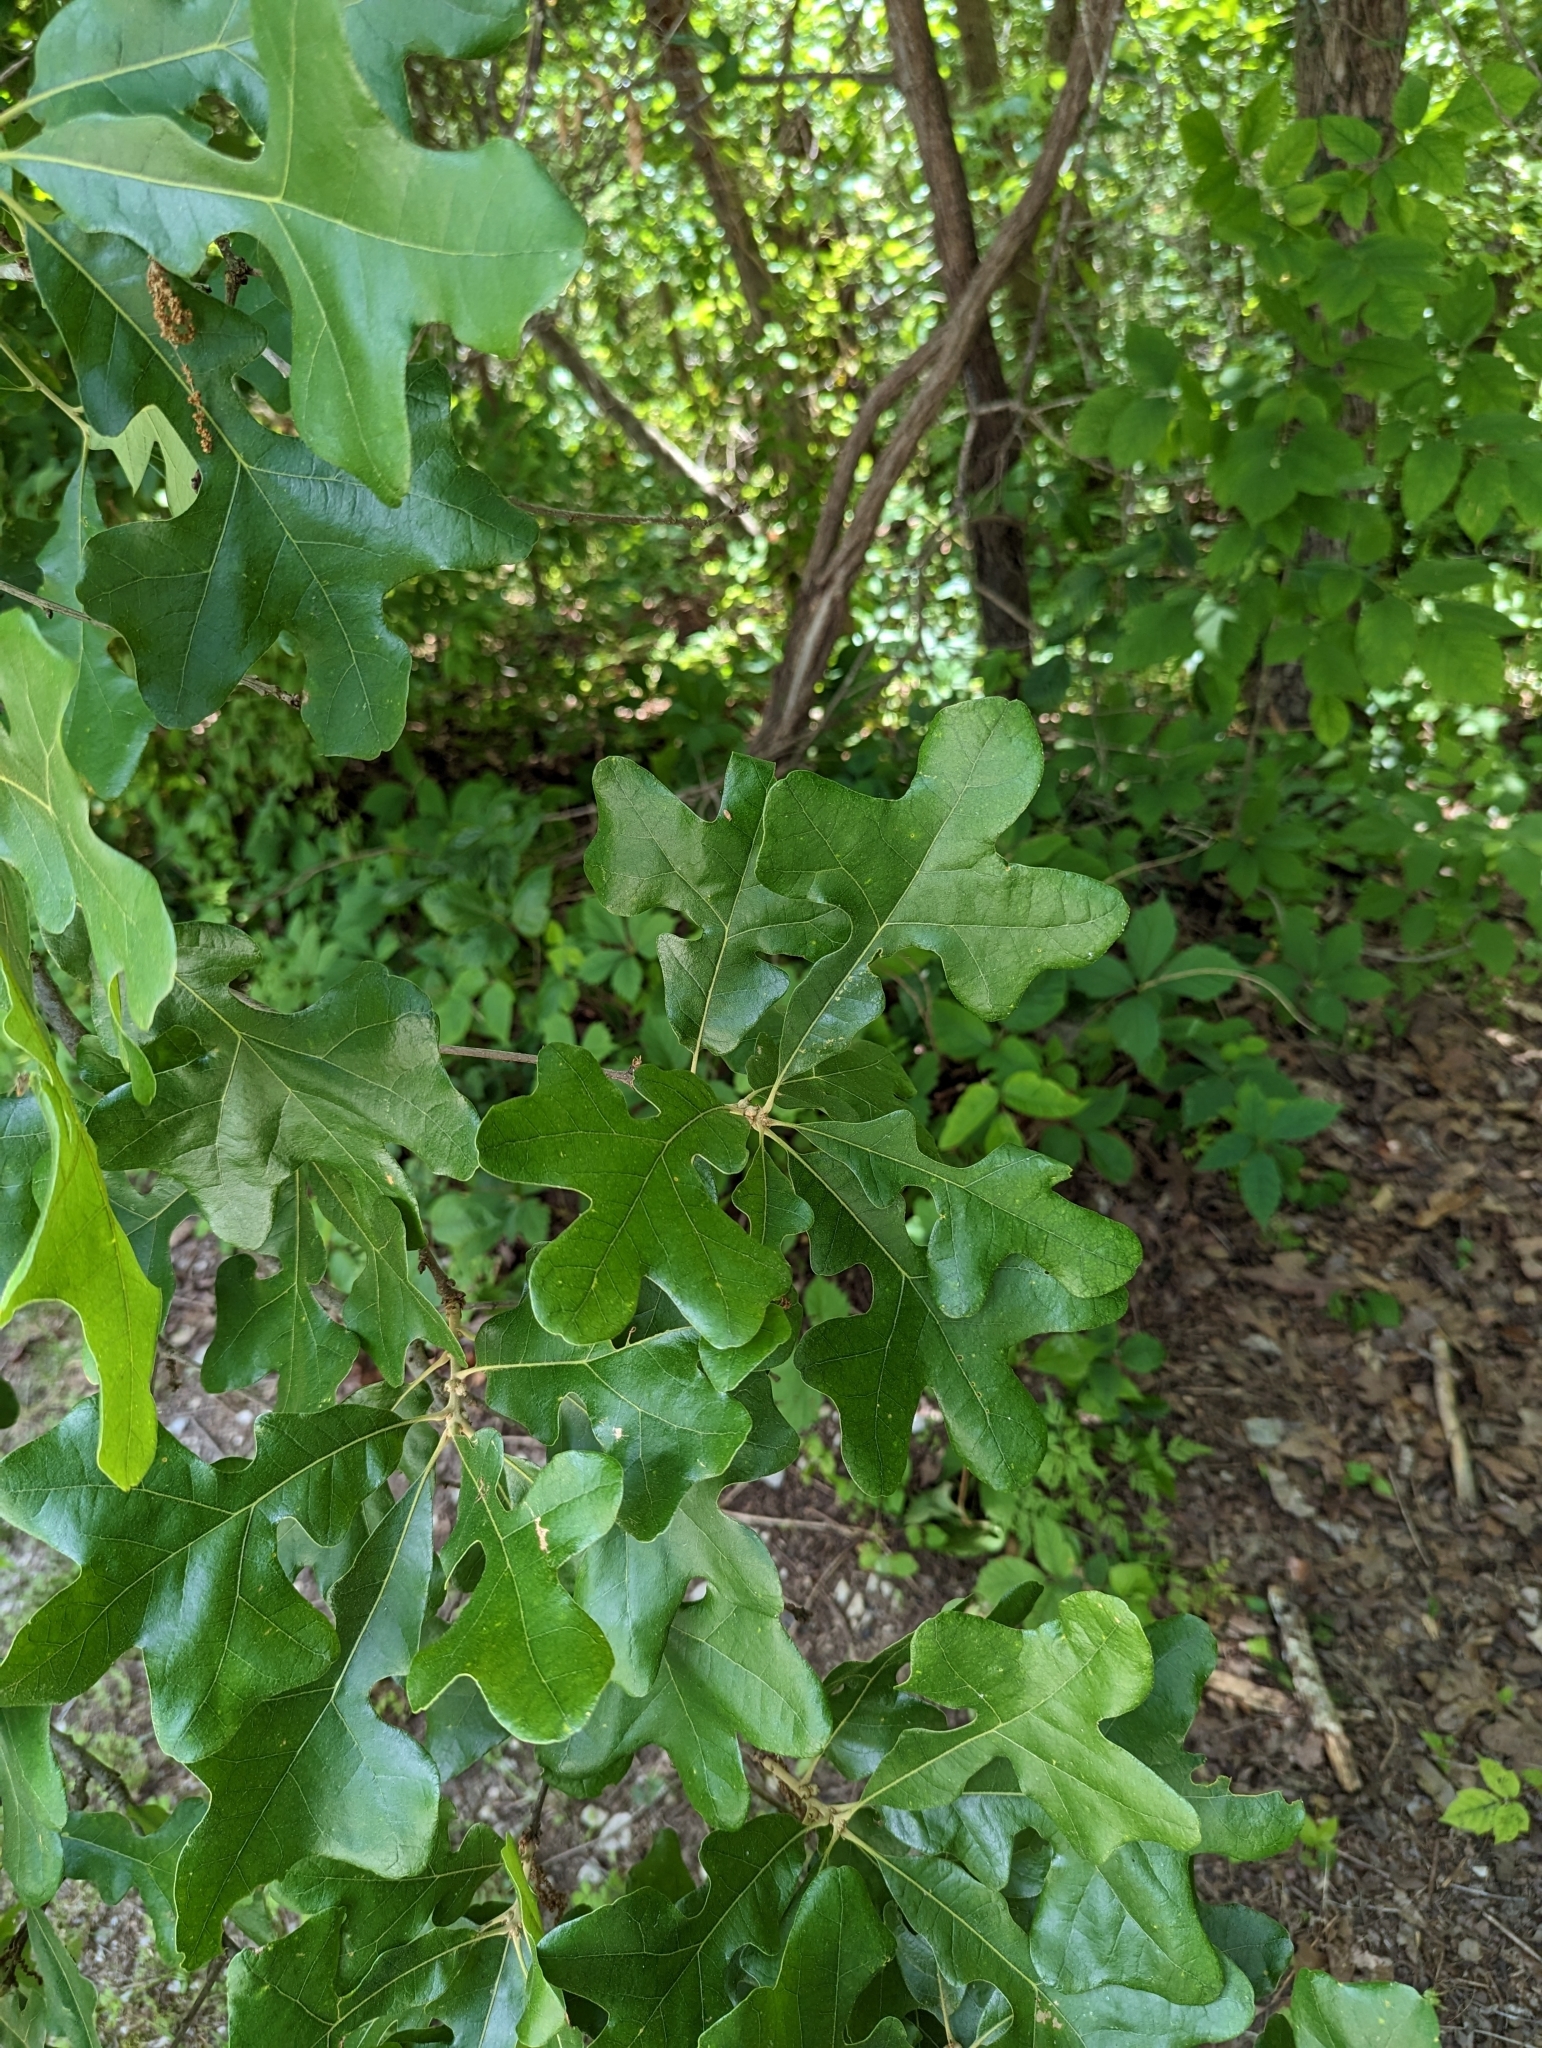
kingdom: Plantae
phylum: Tracheophyta
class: Magnoliopsida
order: Fagales
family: Fagaceae
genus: Quercus
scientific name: Quercus stellata
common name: Post oak
